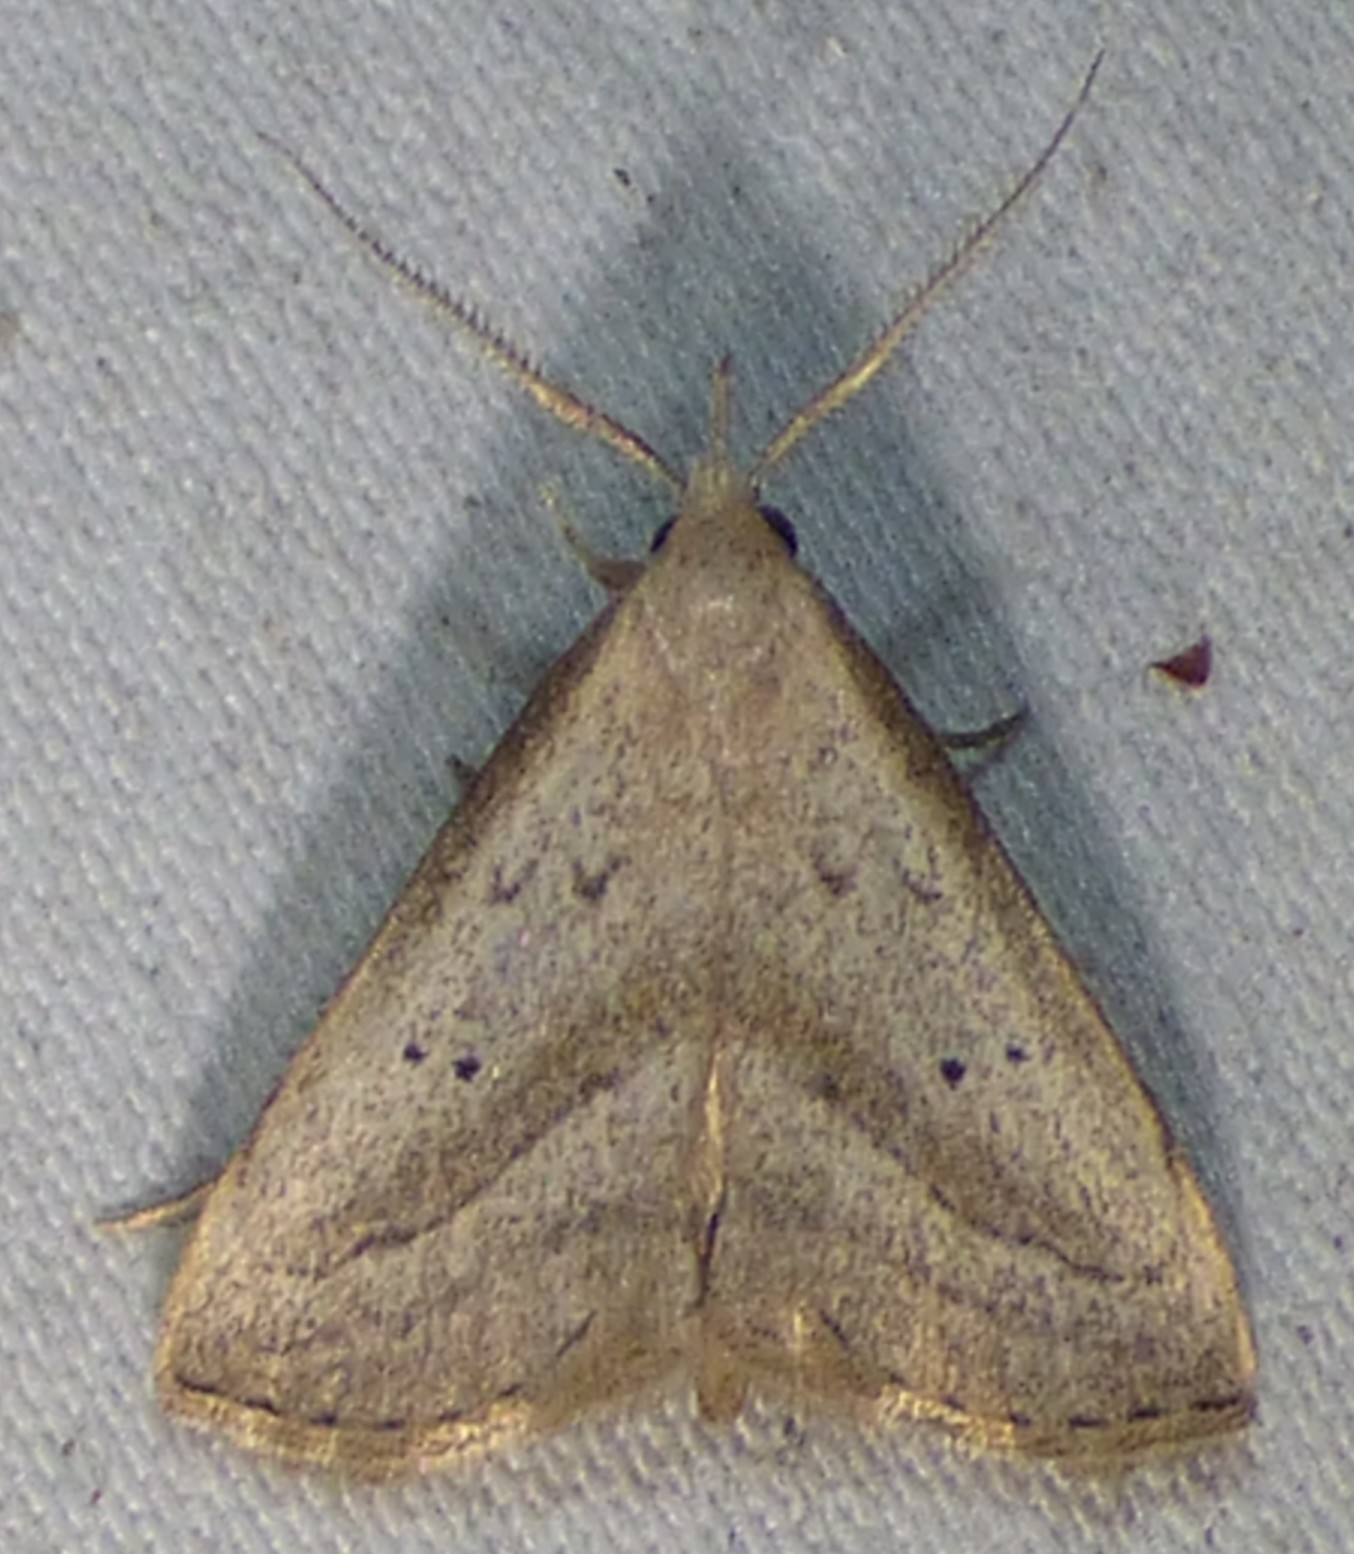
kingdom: Animalia
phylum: Arthropoda
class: Insecta
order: Lepidoptera
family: Erebidae
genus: Macrochilo
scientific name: Macrochilo hypocritalis
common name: Twin-dotted owlet
